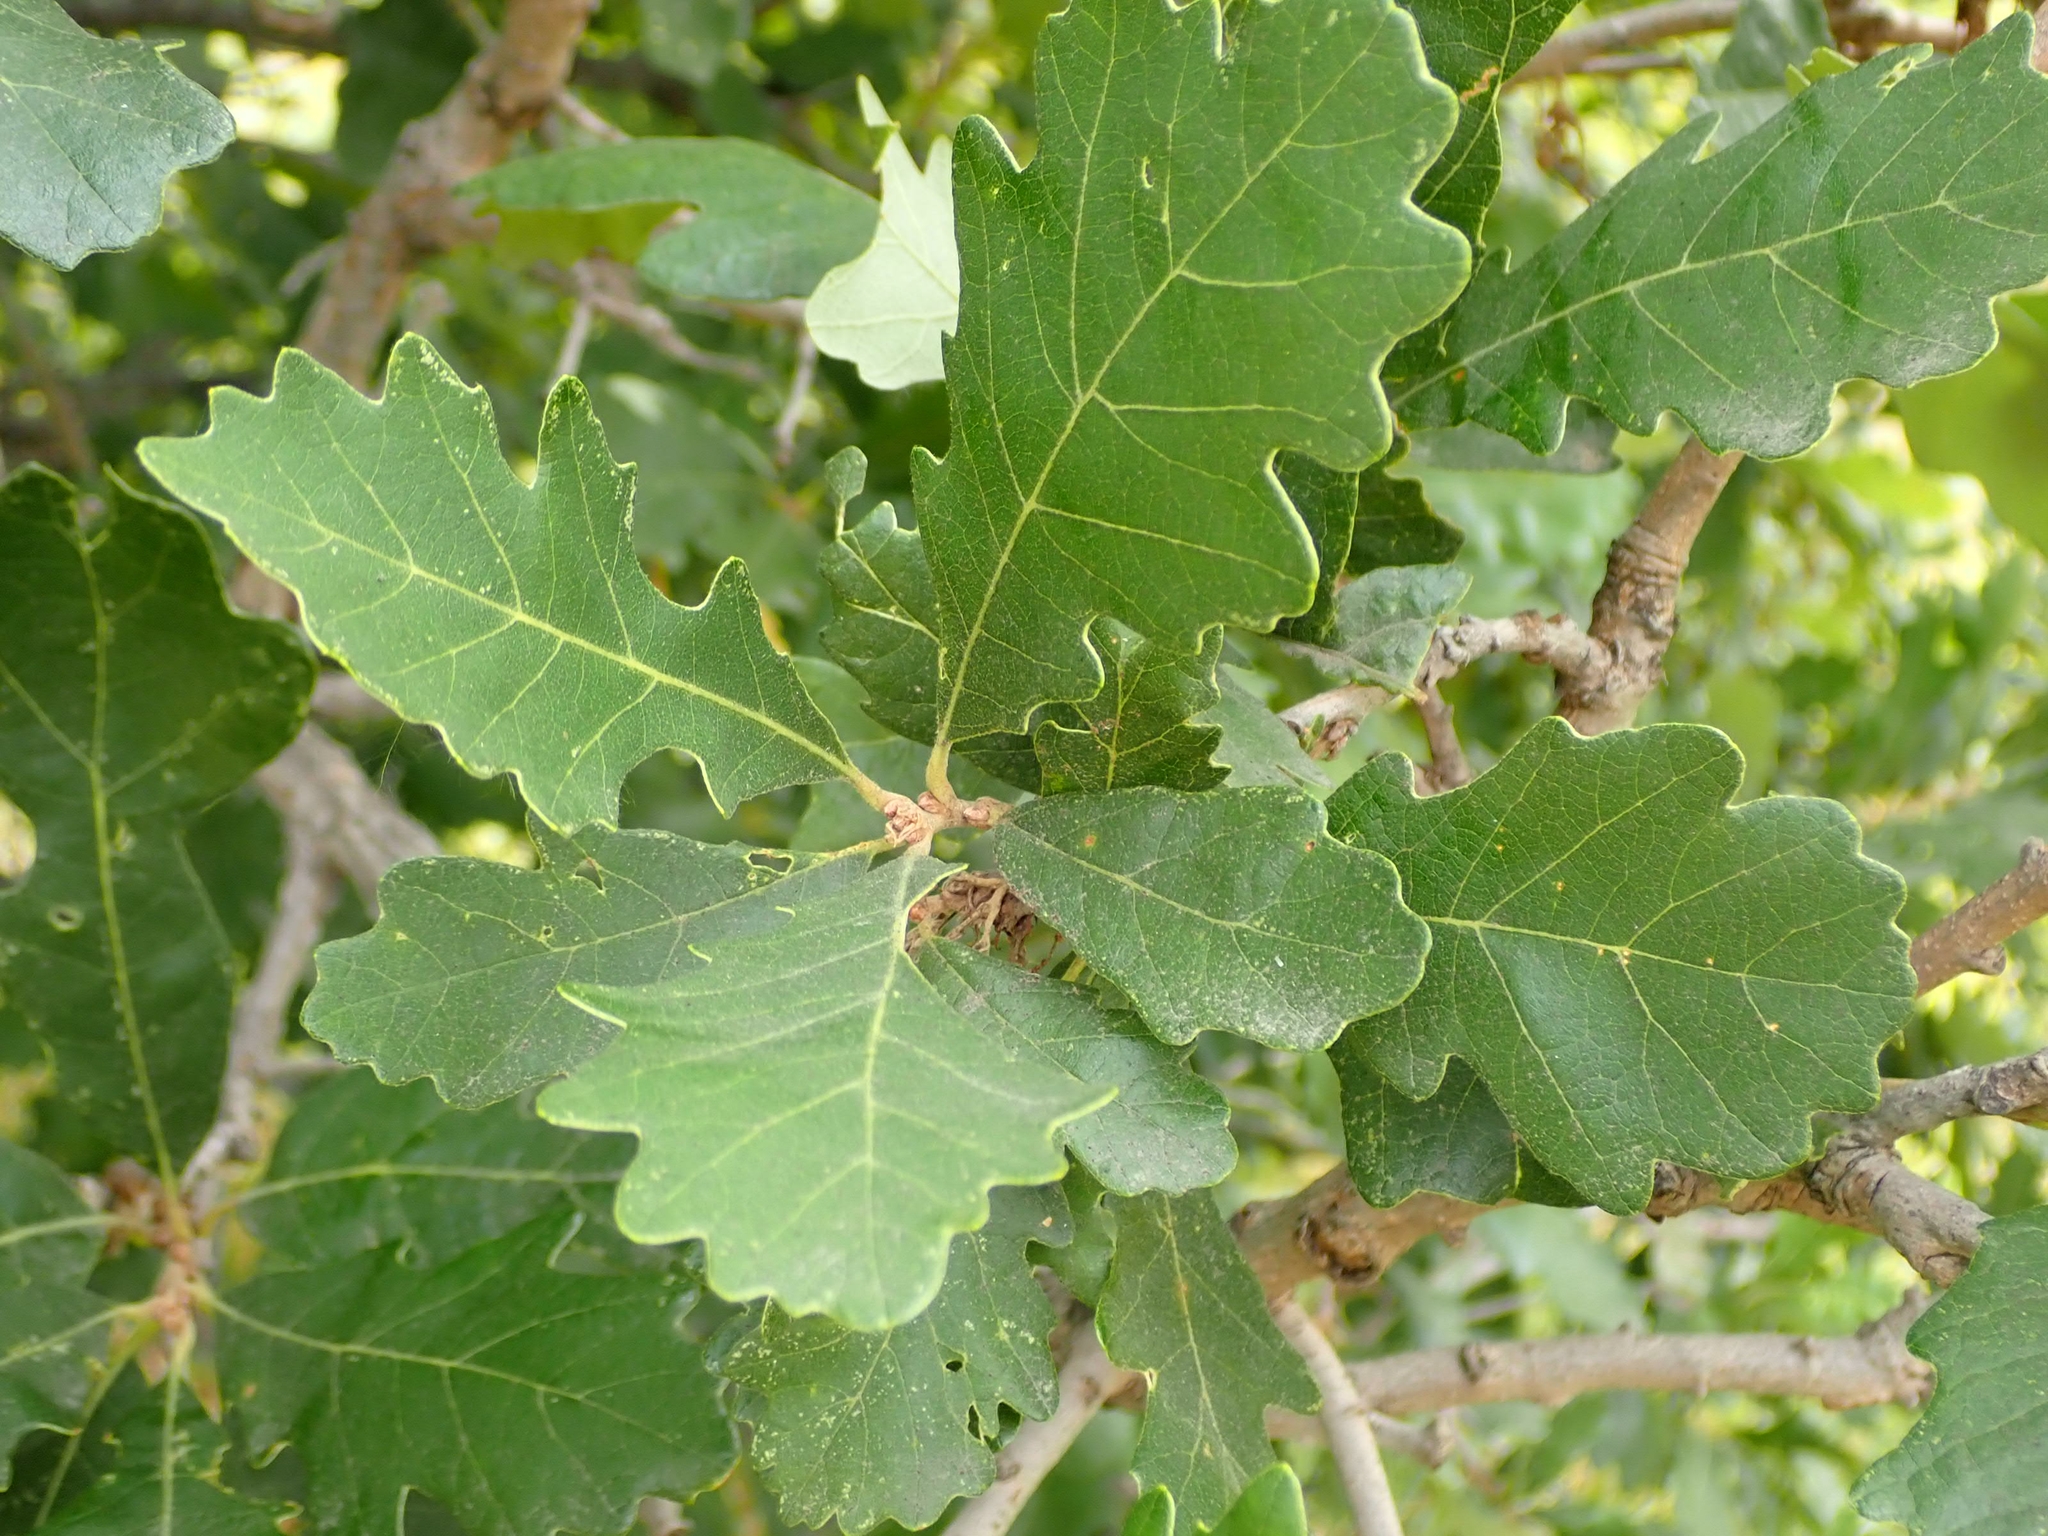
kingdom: Plantae
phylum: Tracheophyta
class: Magnoliopsida
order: Fagales
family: Fagaceae
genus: Quercus
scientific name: Quercus macrocarpa
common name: Bur oak
